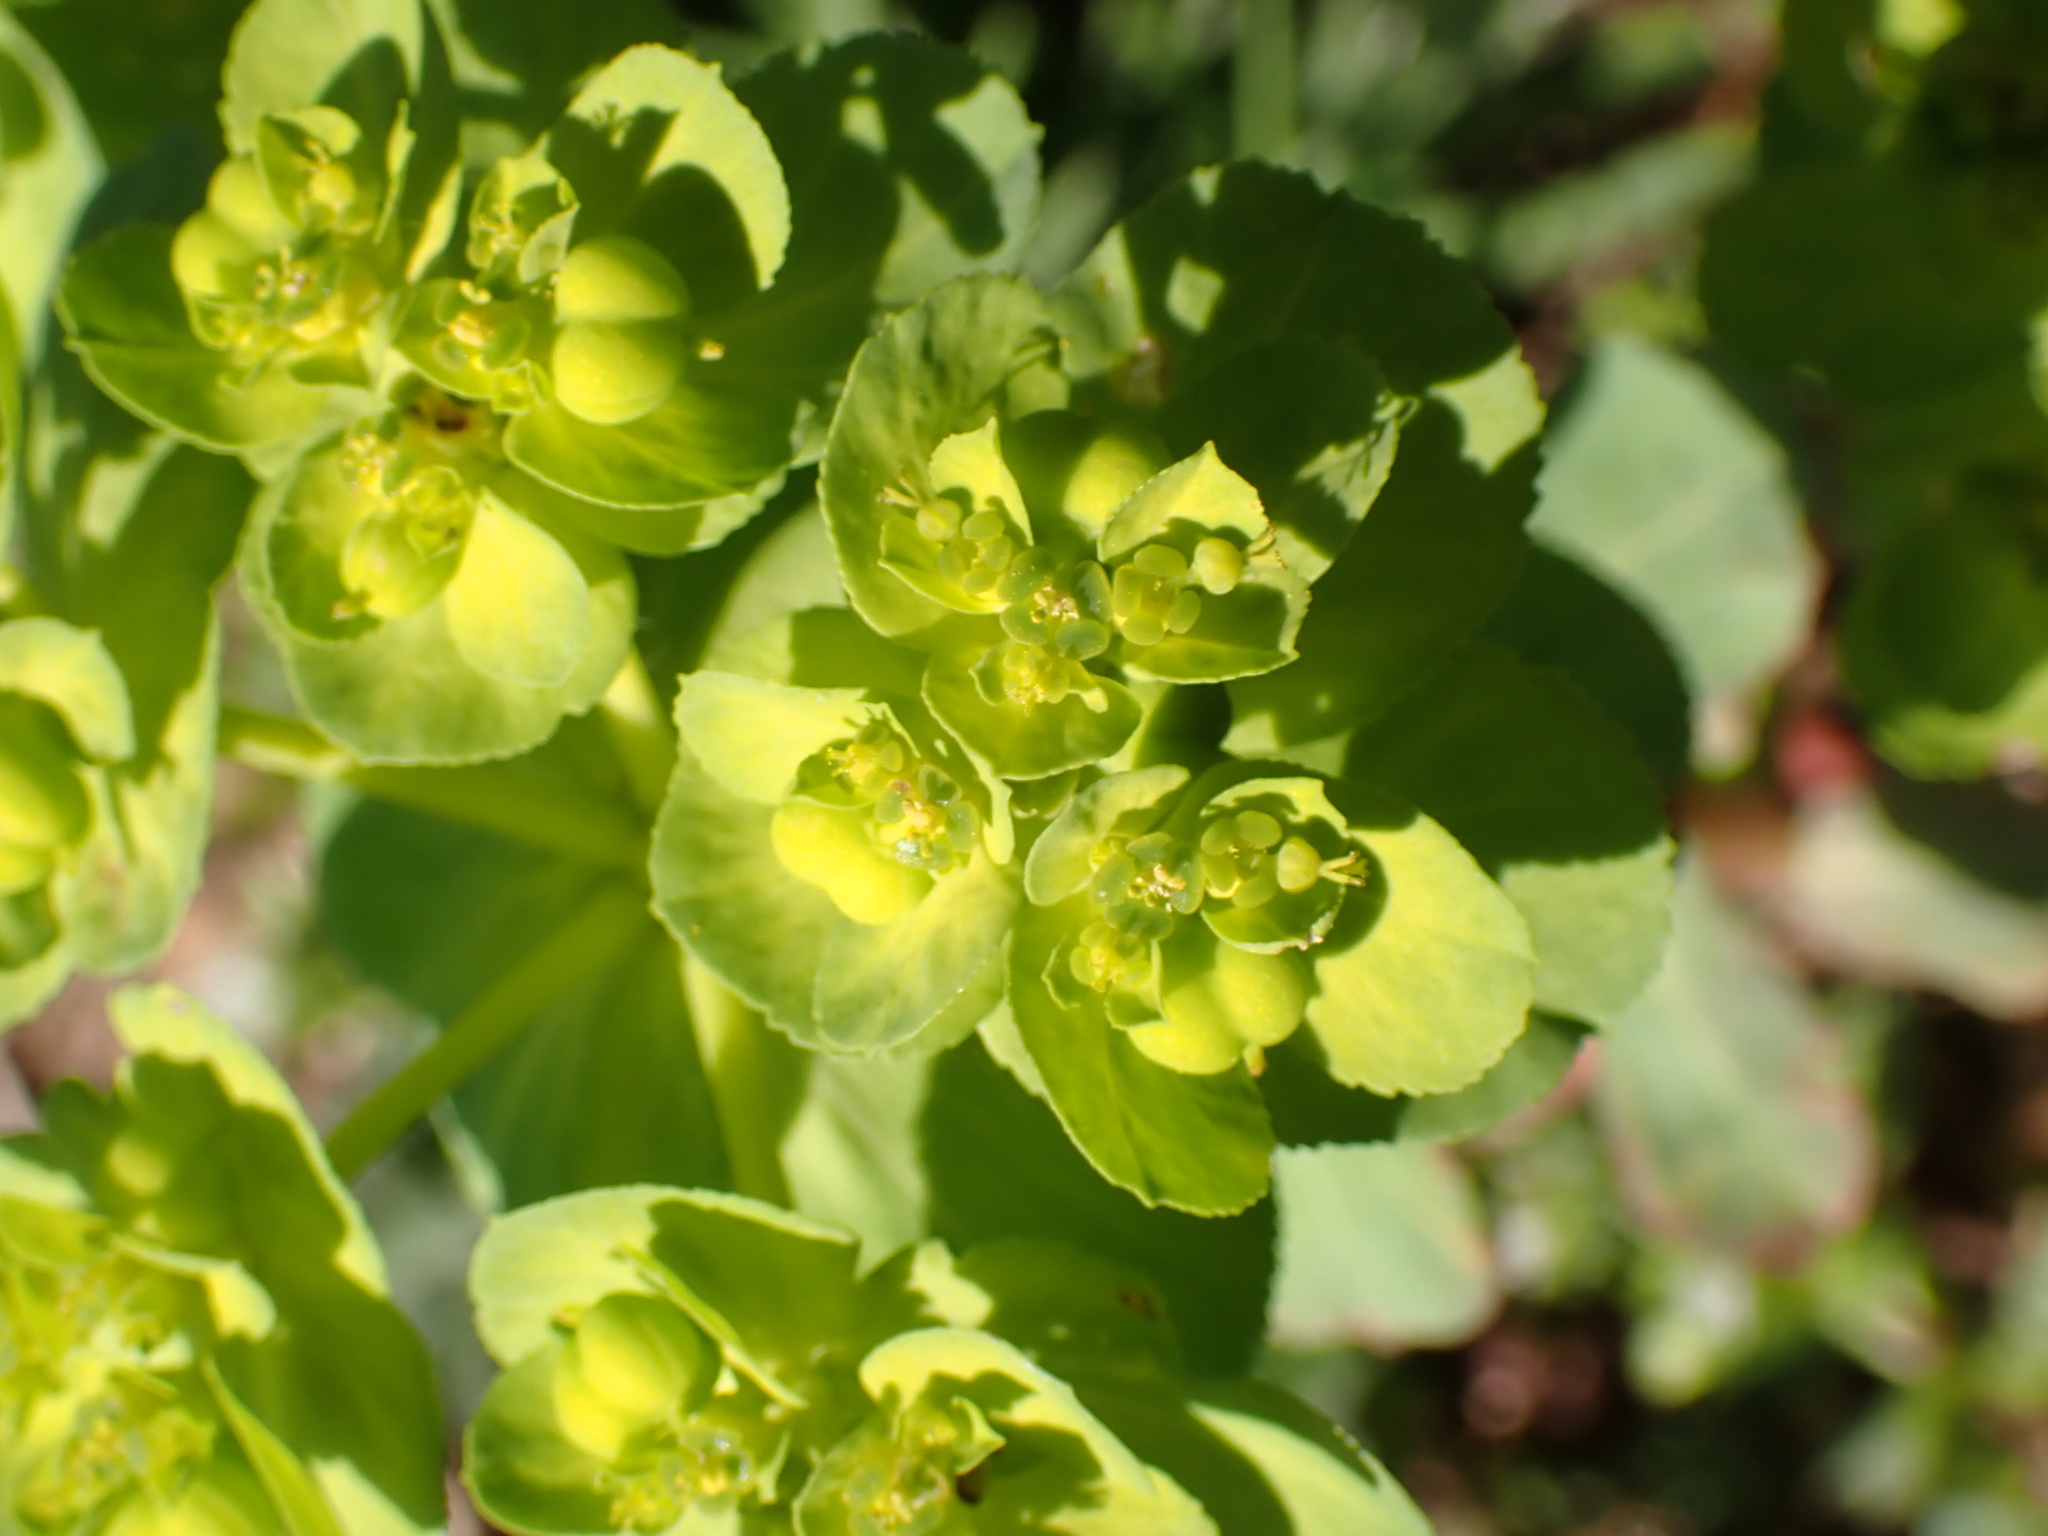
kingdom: Plantae
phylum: Tracheophyta
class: Magnoliopsida
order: Malpighiales
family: Euphorbiaceae
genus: Euphorbia
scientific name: Euphorbia helioscopia
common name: Sun spurge
